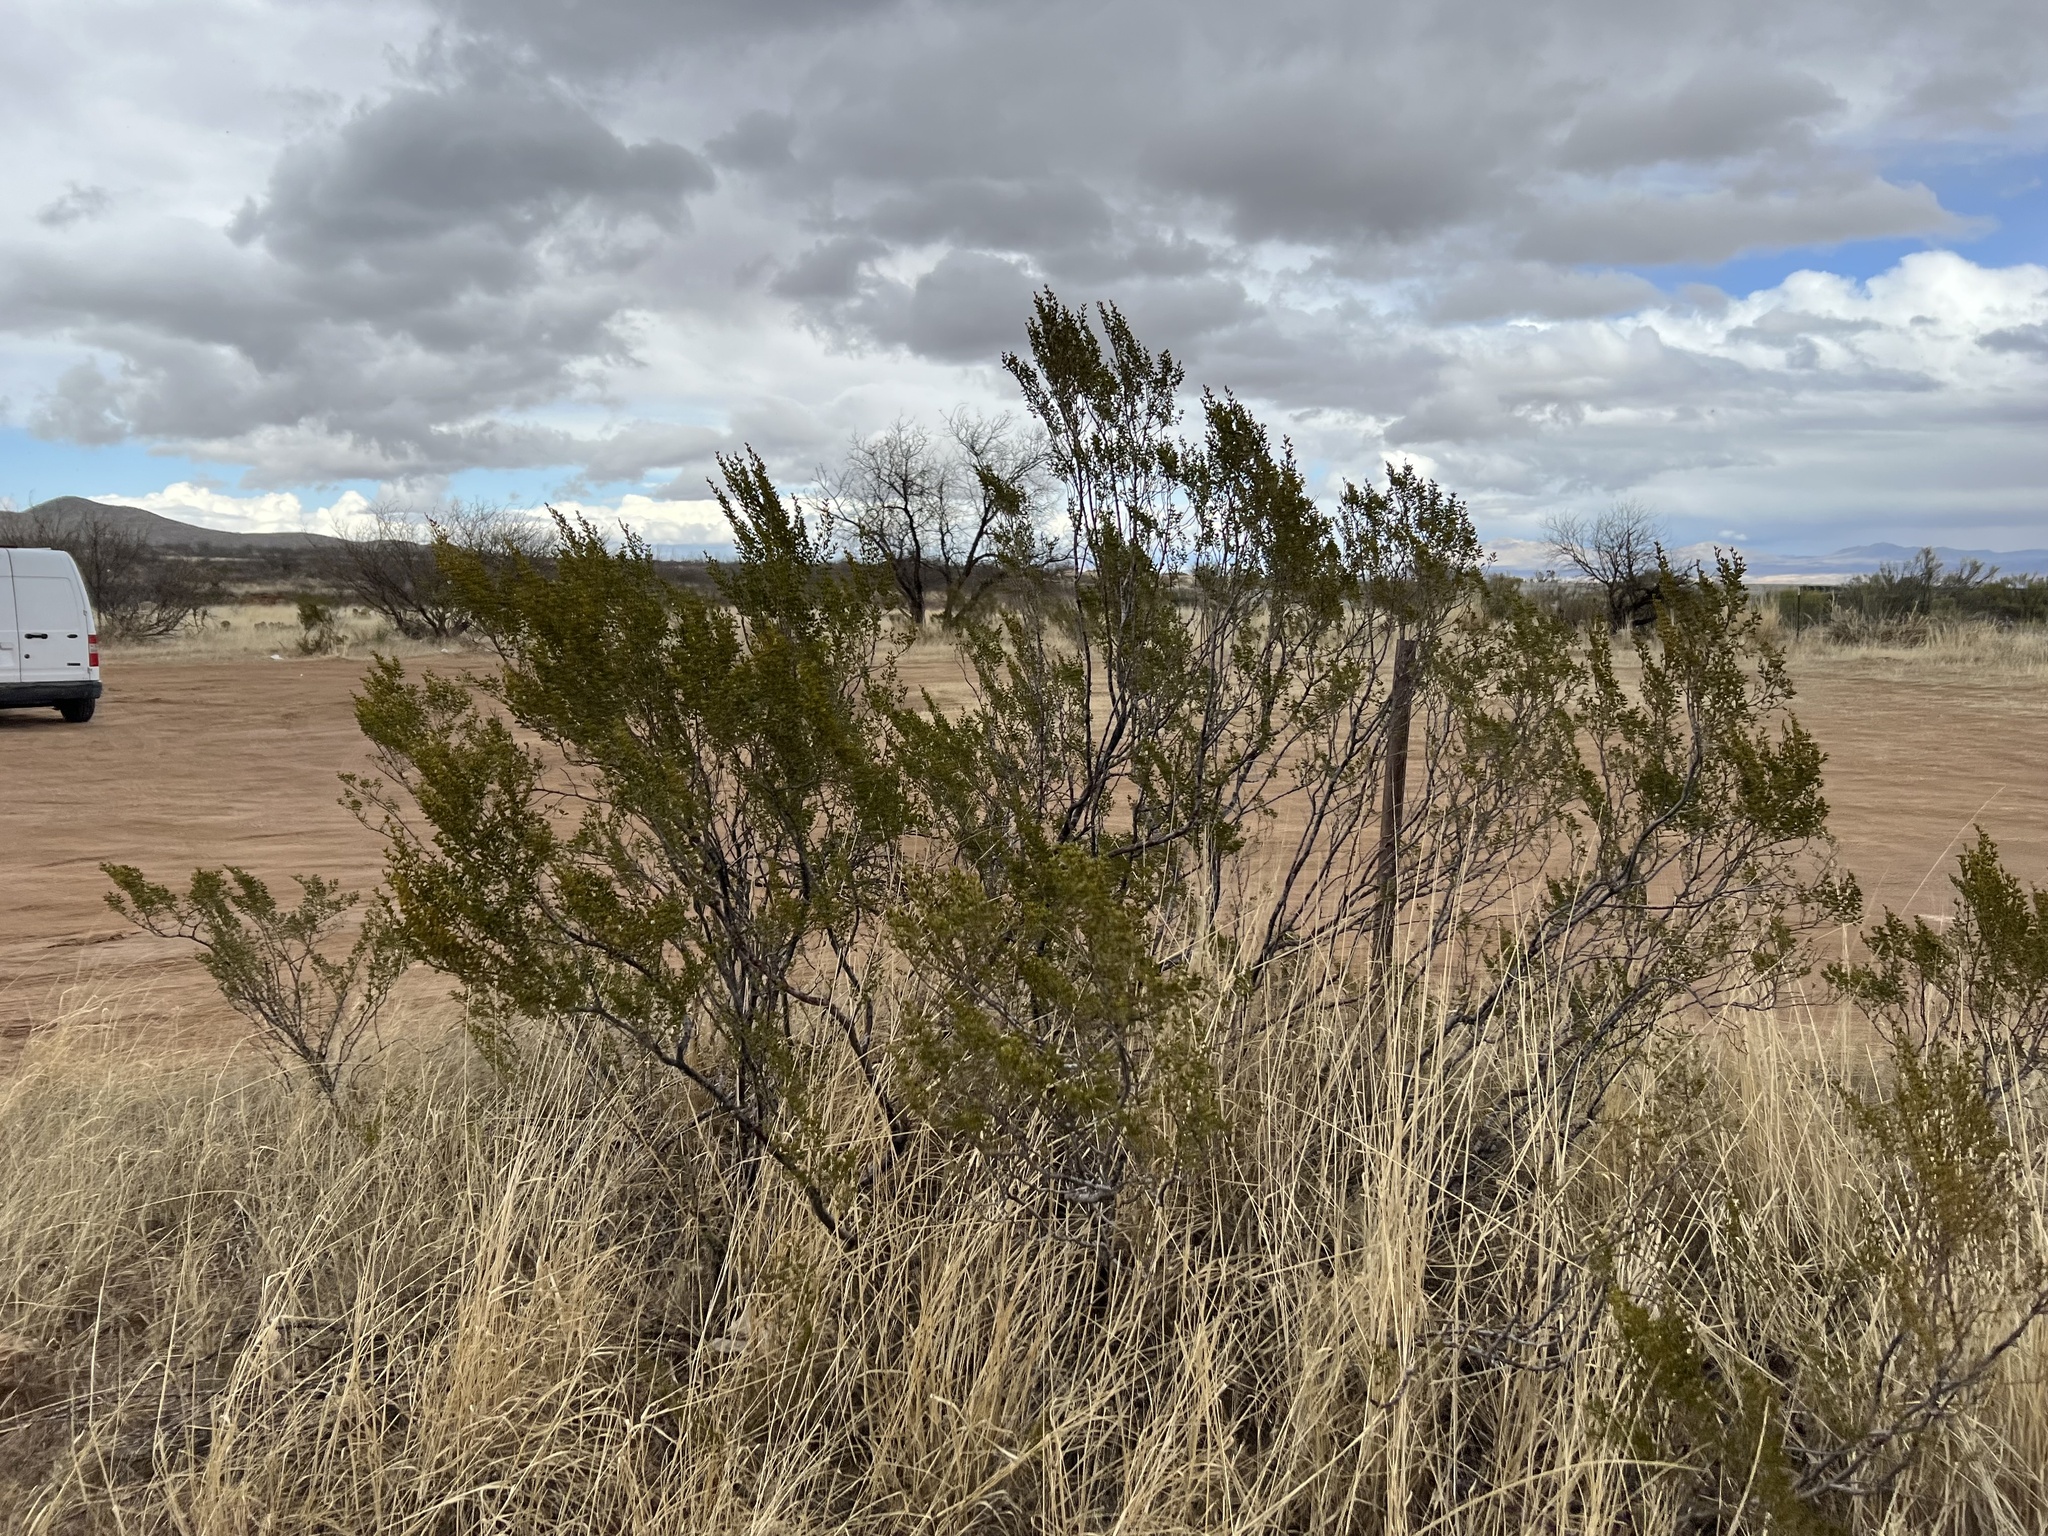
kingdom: Plantae
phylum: Tracheophyta
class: Magnoliopsida
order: Zygophyllales
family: Zygophyllaceae
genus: Larrea
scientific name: Larrea tridentata
